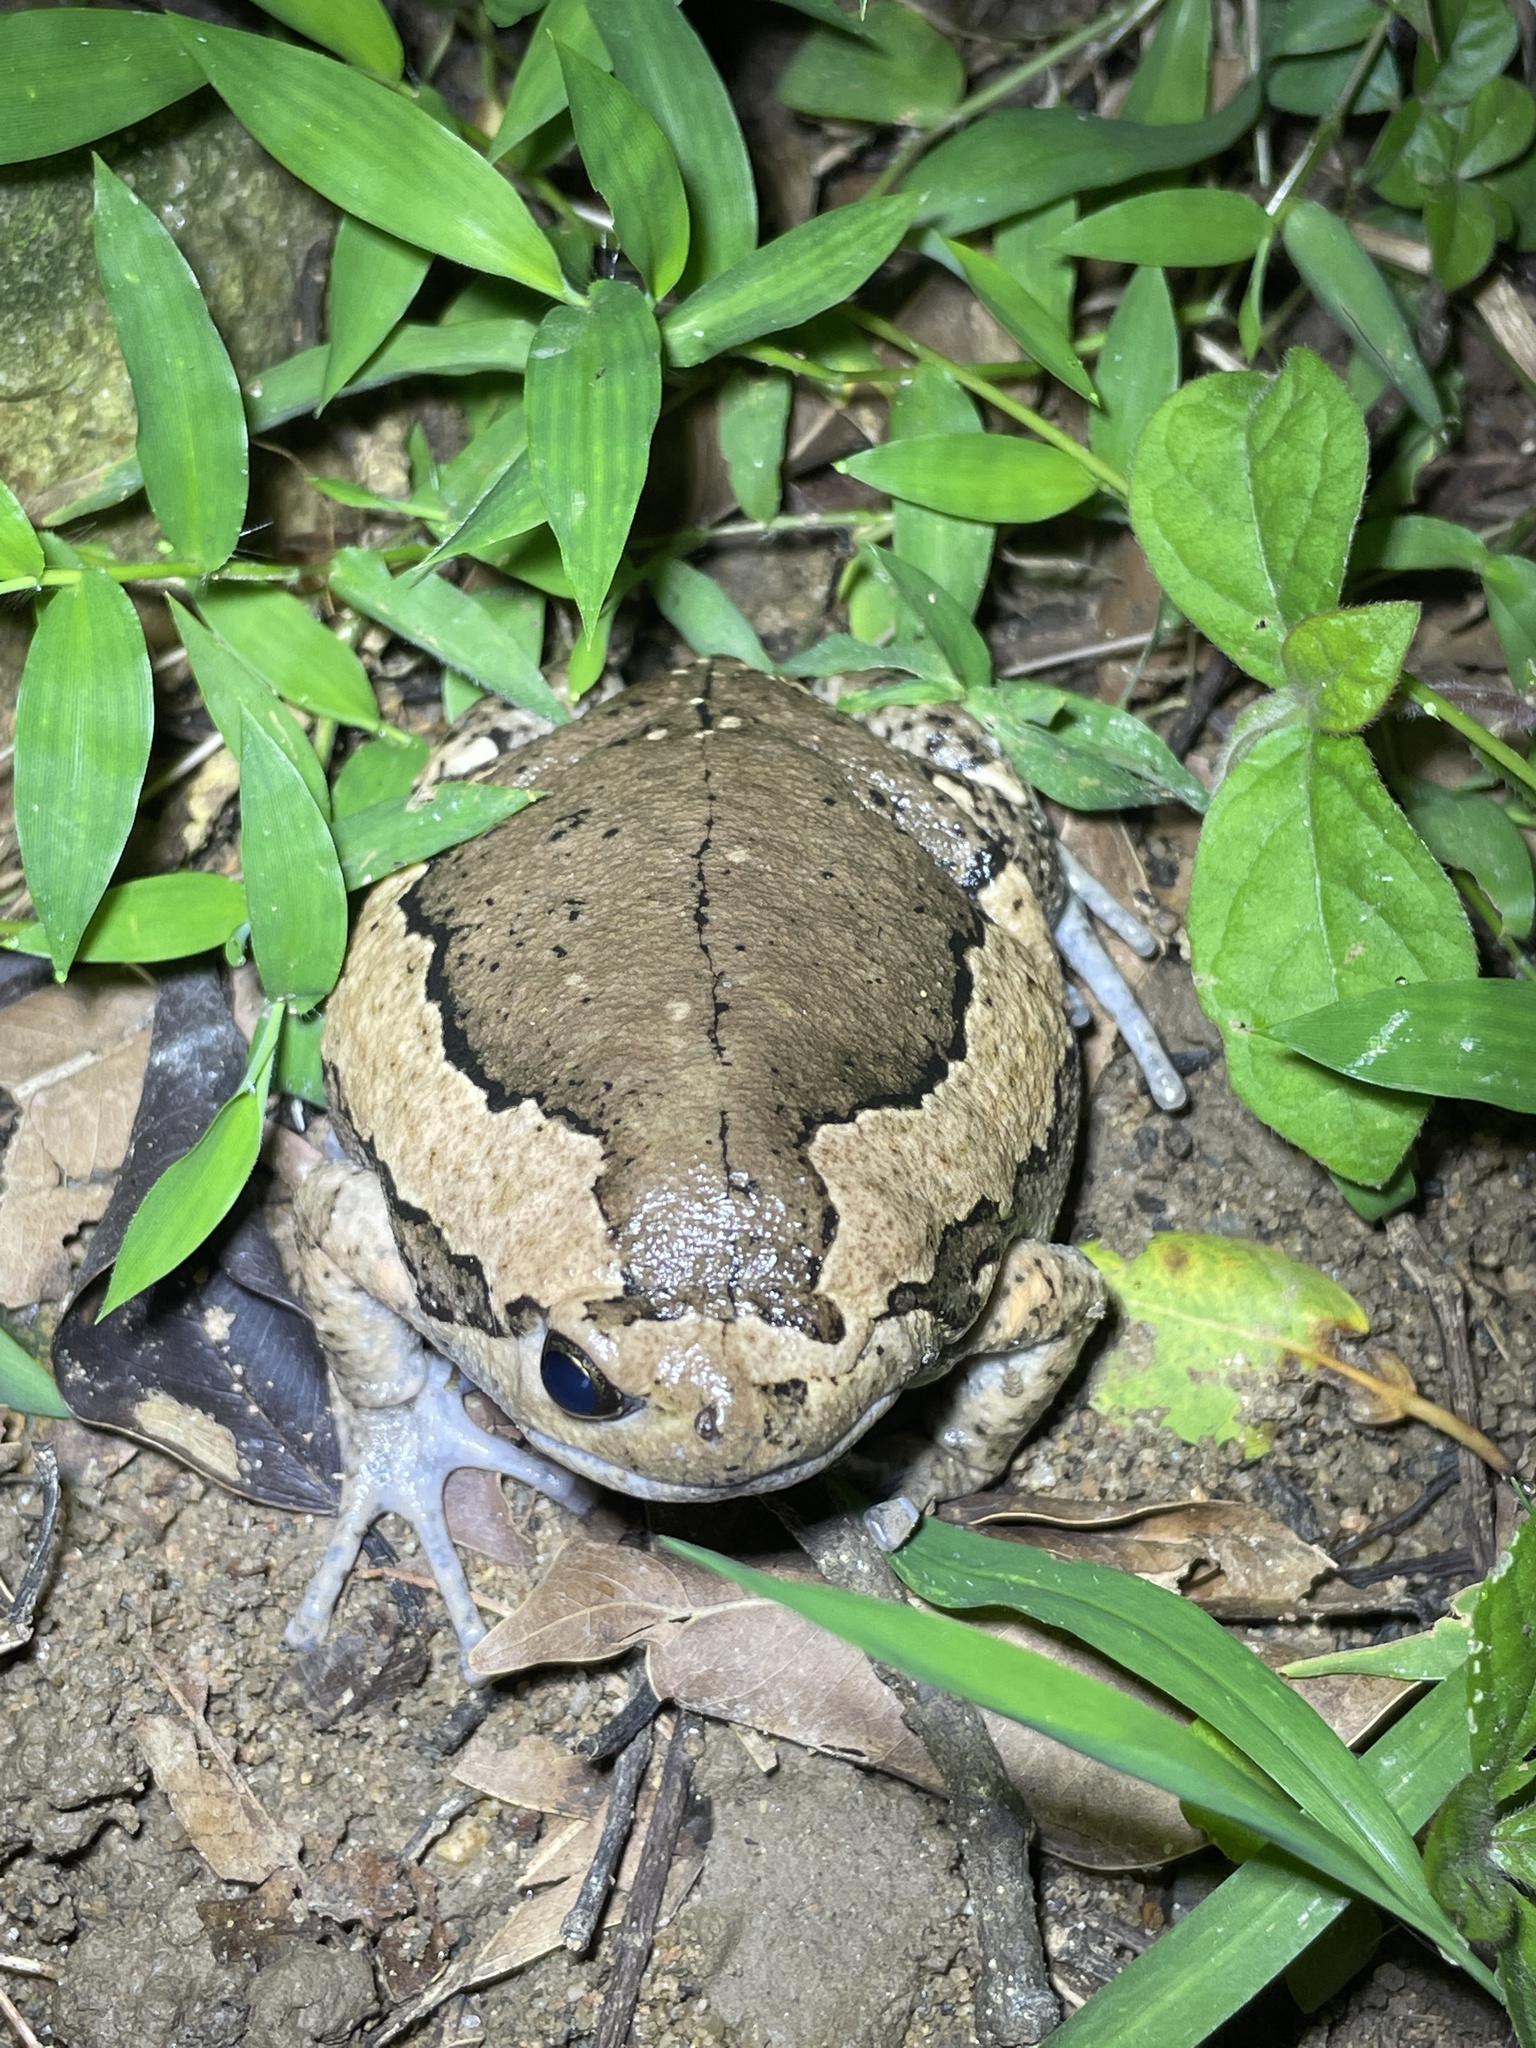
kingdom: Animalia
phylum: Chordata
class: Amphibia
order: Anura
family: Microhylidae
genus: Kaloula
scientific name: Kaloula pulchra
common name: Common,banded bullfrog
